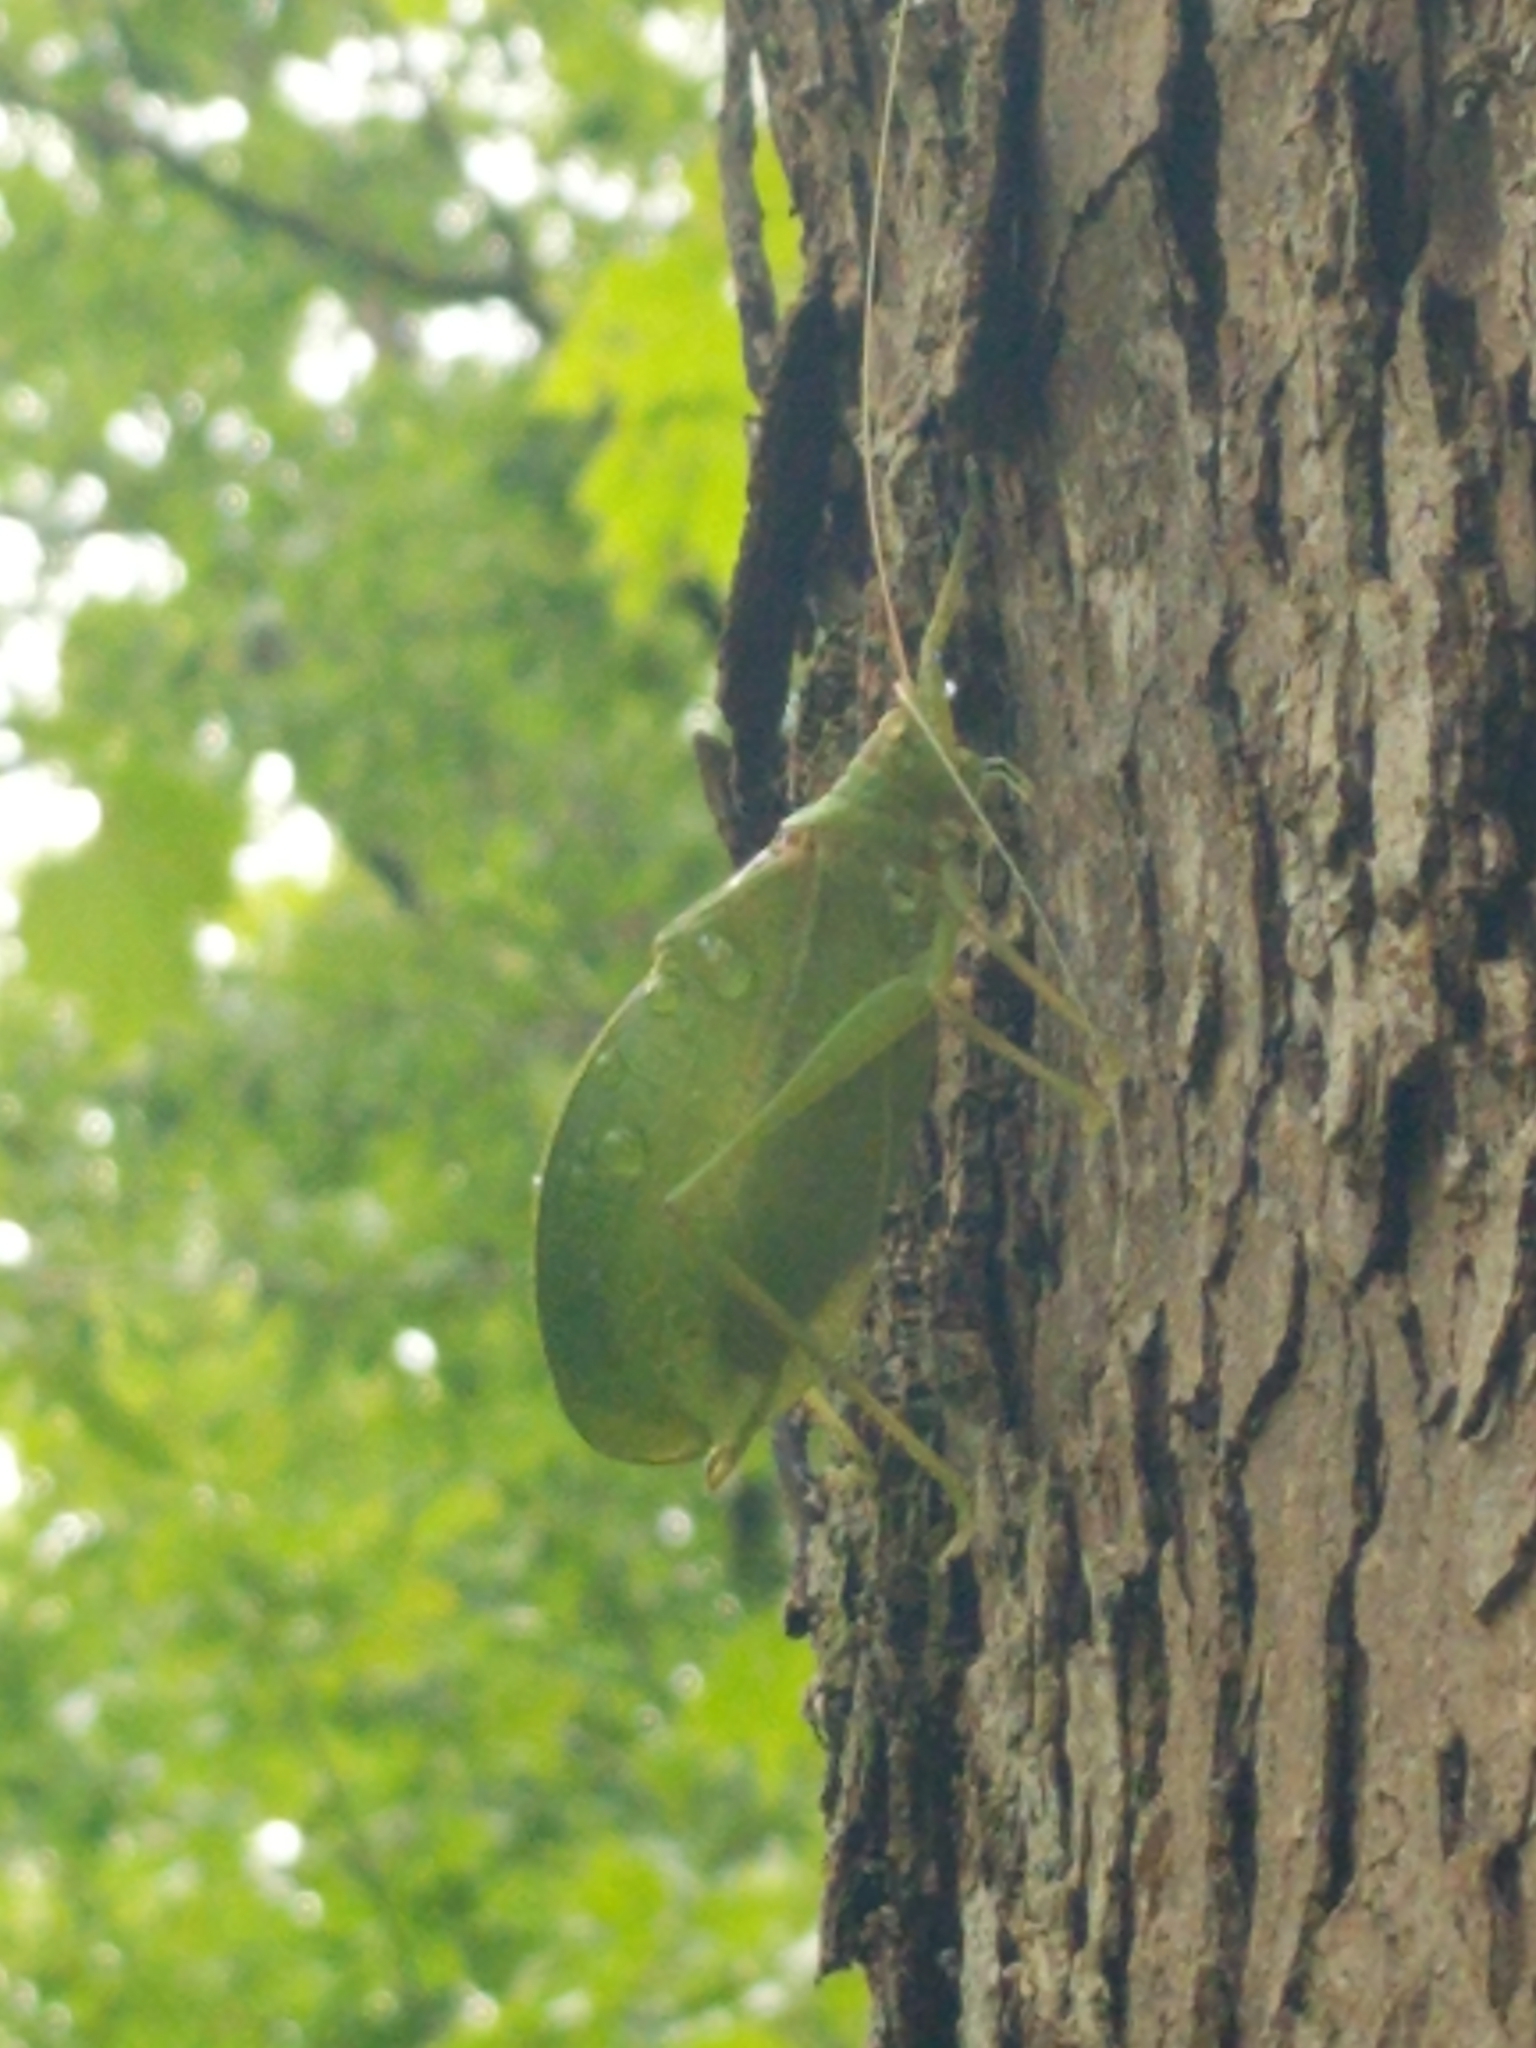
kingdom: Animalia
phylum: Arthropoda
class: Insecta
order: Orthoptera
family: Tettigoniidae
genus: Pterophylla
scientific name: Pterophylla camellifolia
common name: Common true katydid
